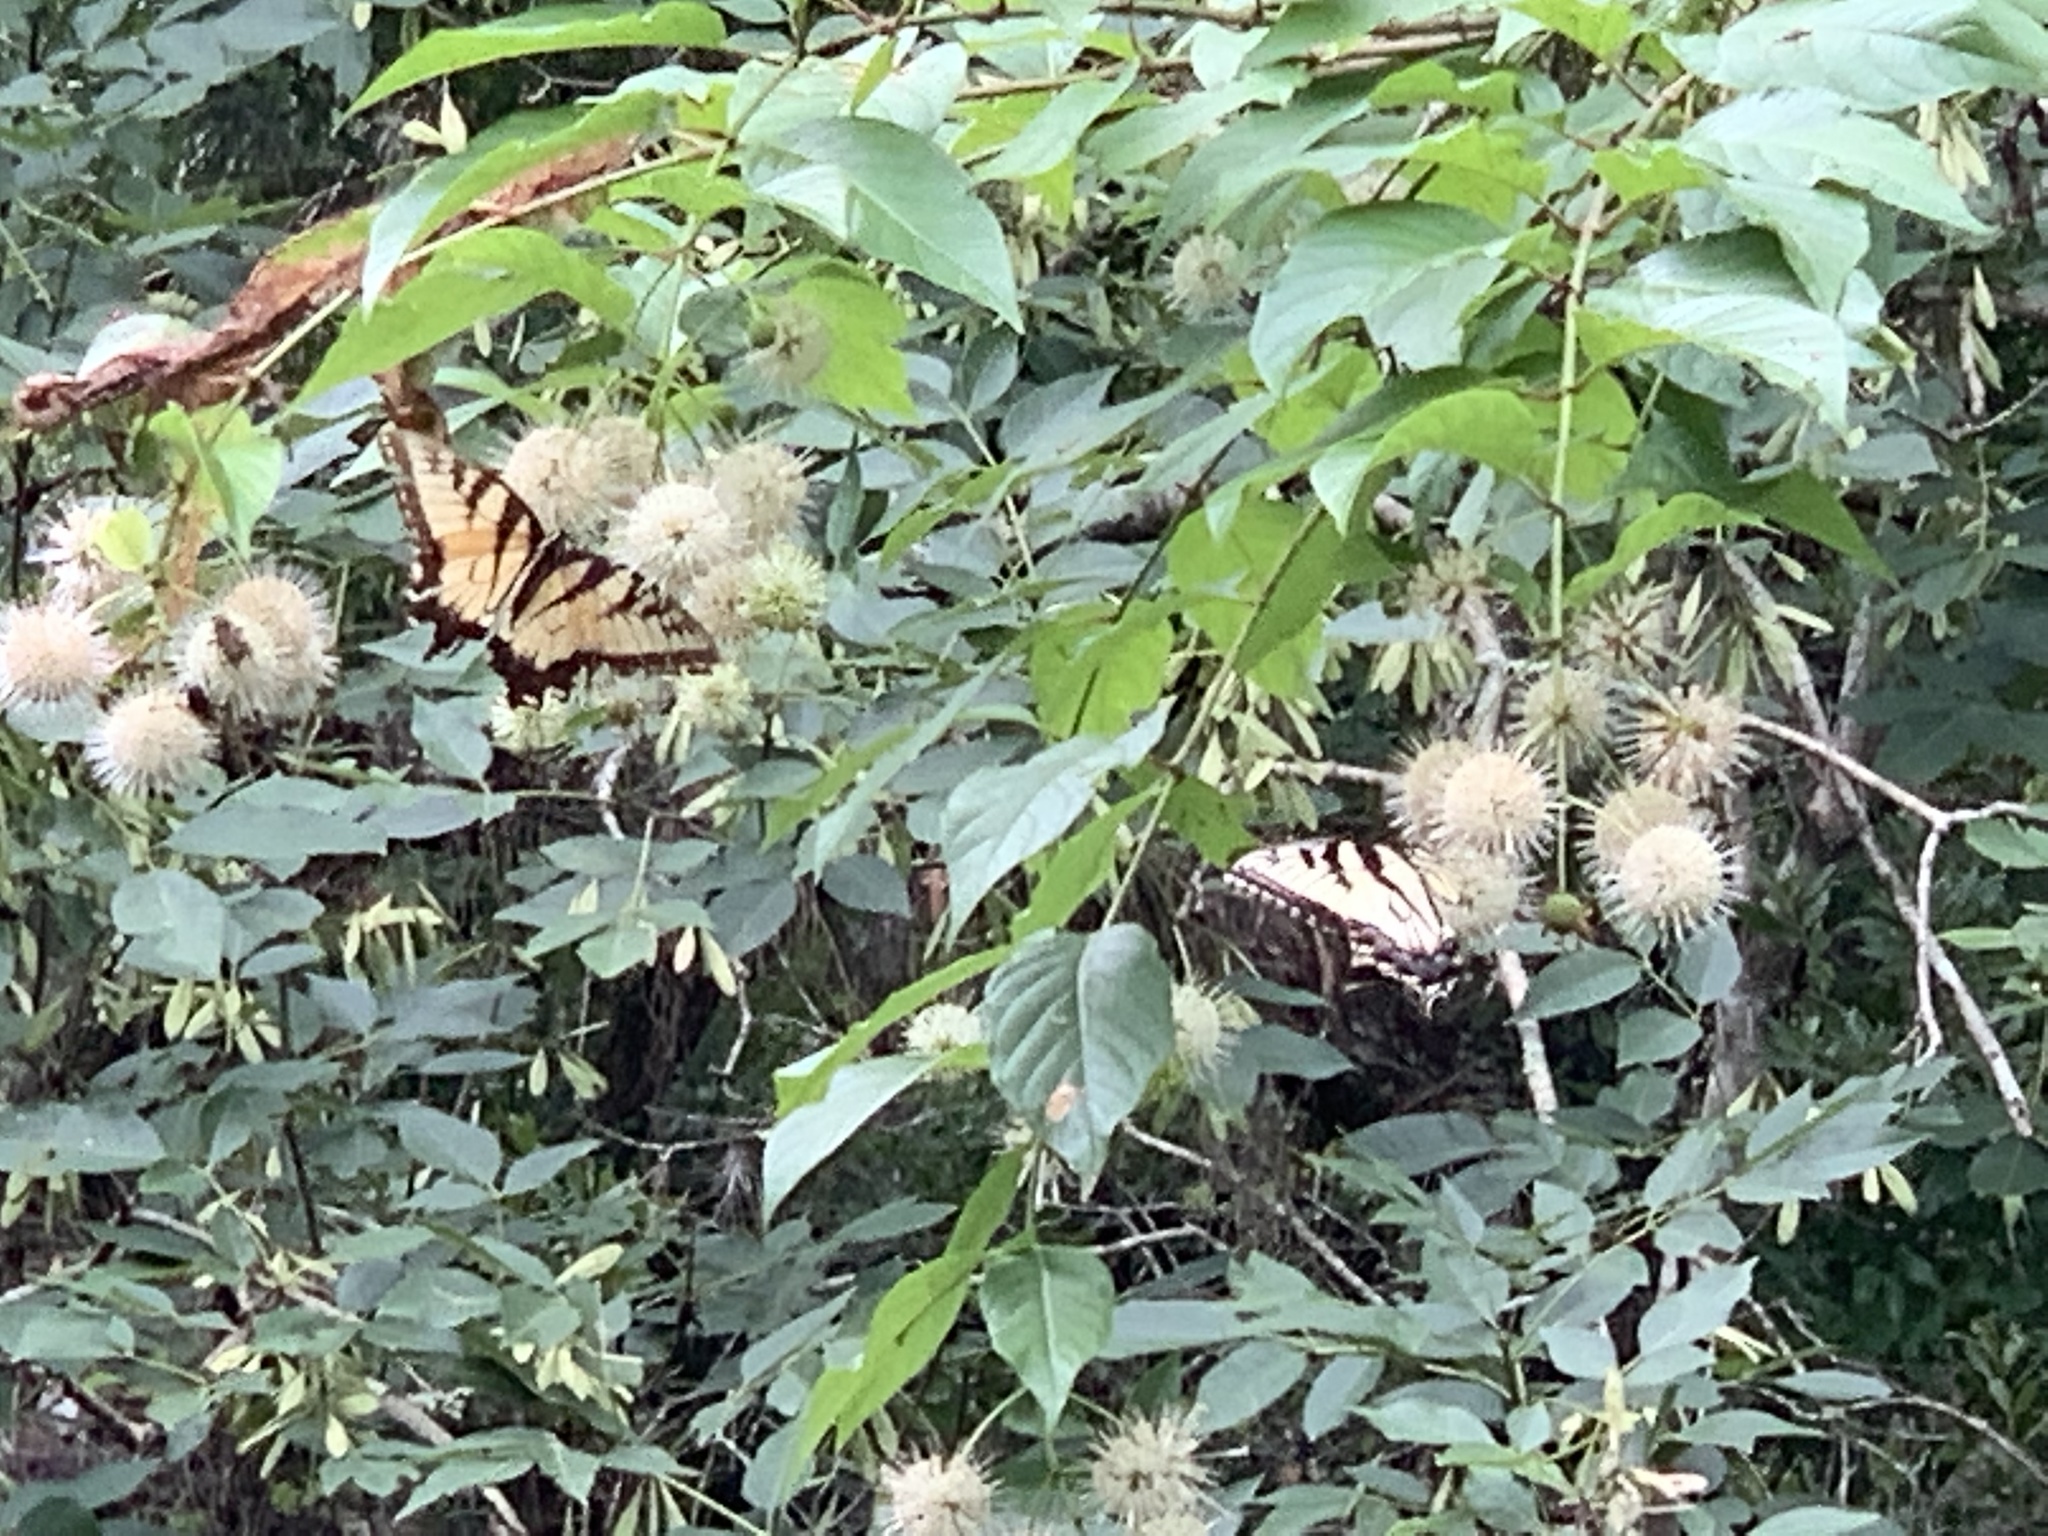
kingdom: Animalia
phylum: Arthropoda
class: Insecta
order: Lepidoptera
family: Papilionidae
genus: Papilio
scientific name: Papilio glaucus
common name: Tiger swallowtail
